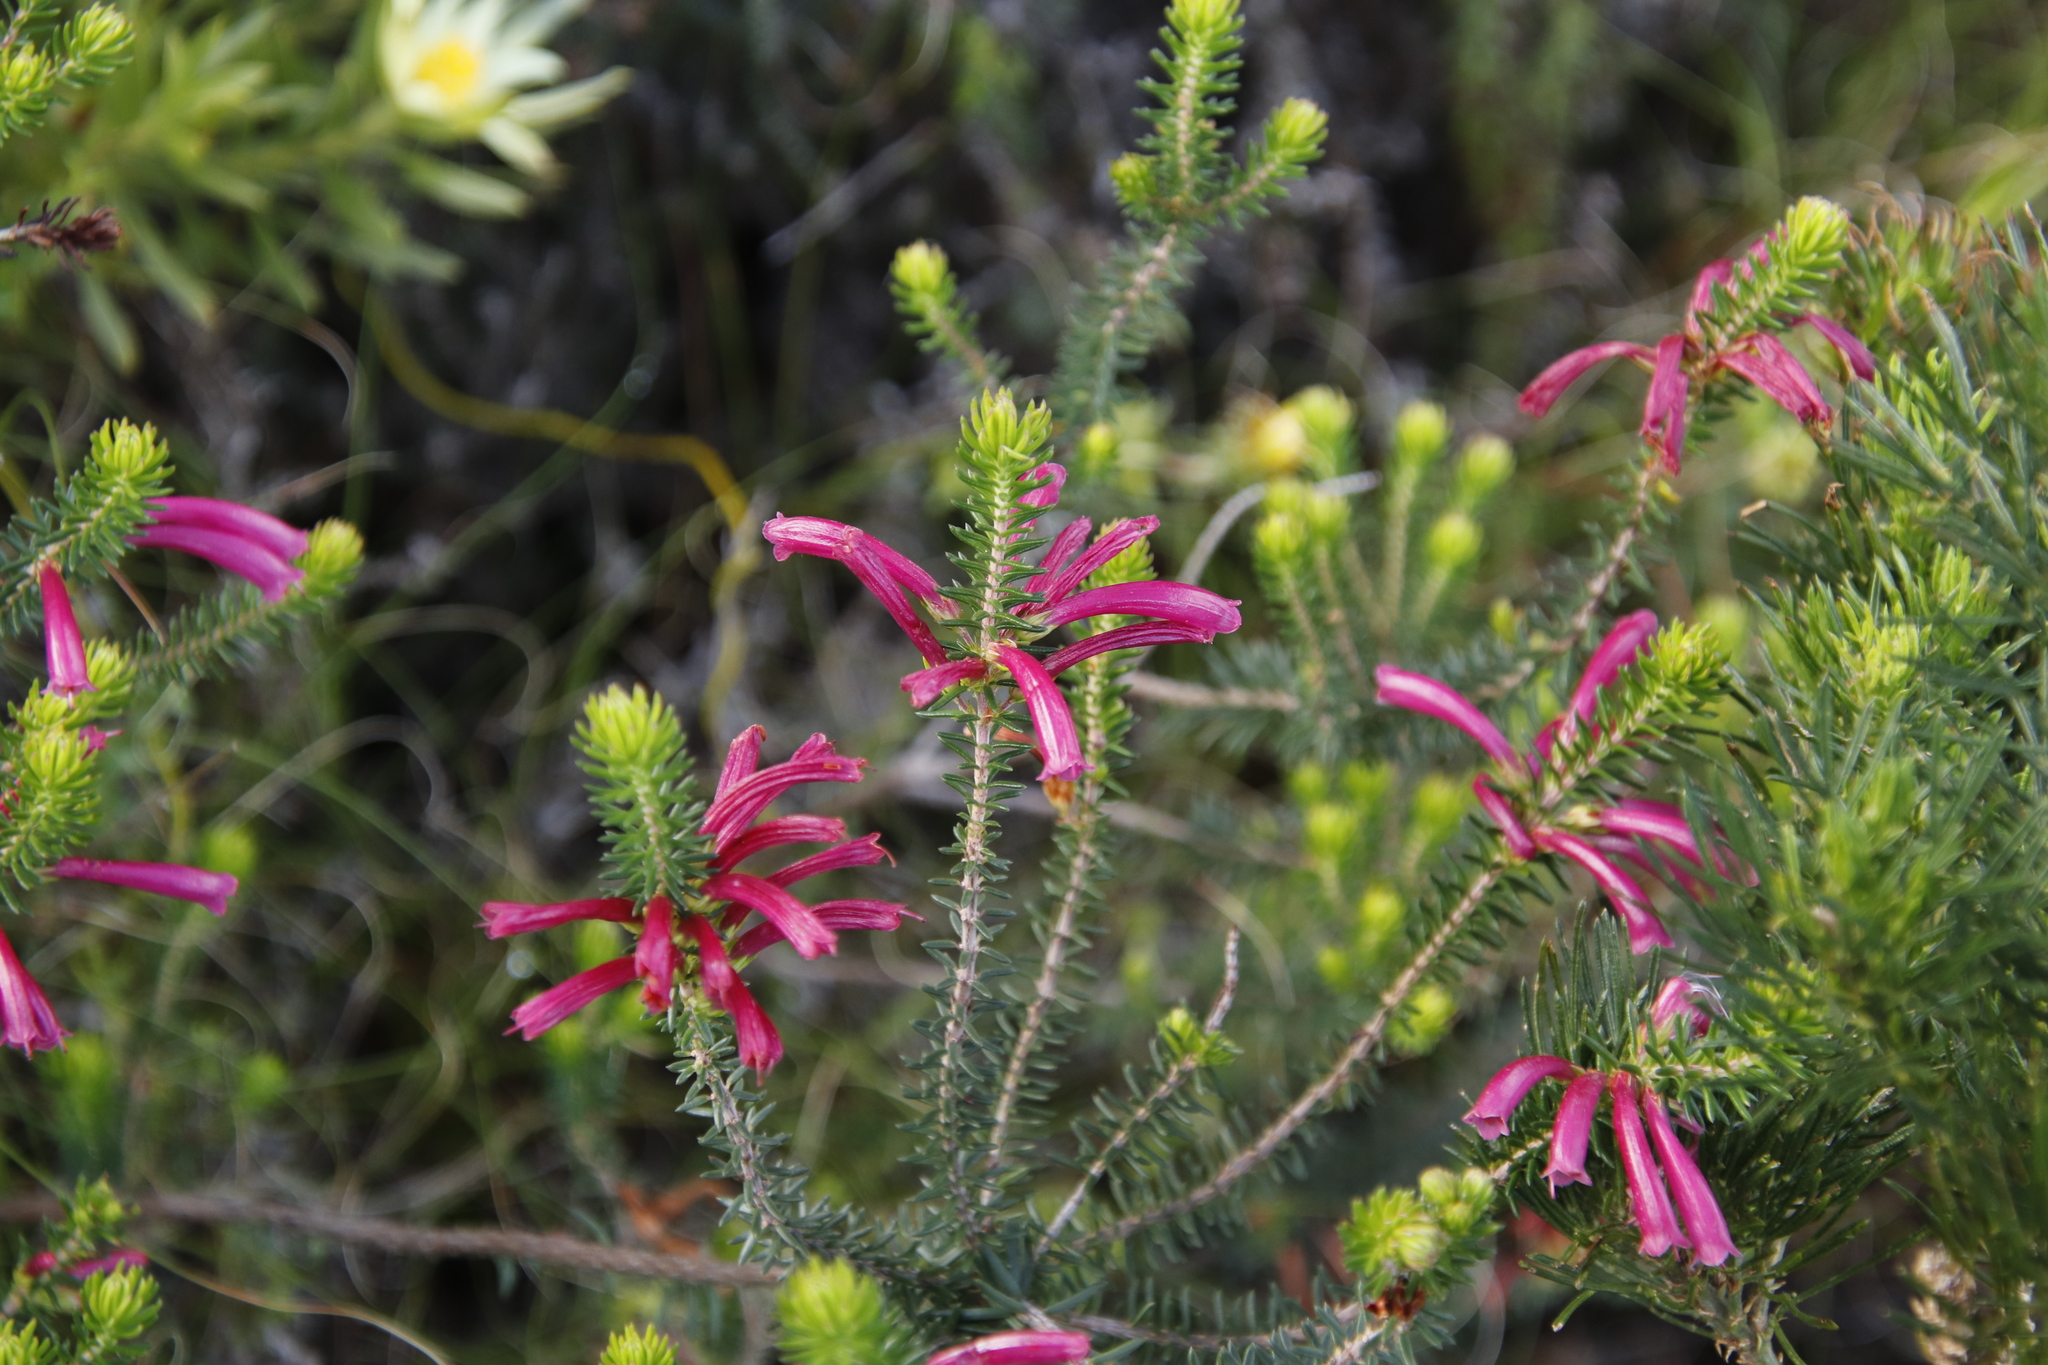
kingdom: Plantae
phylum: Tracheophyta
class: Magnoliopsida
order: Ericales
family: Ericaceae
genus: Erica
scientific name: Erica abietina
